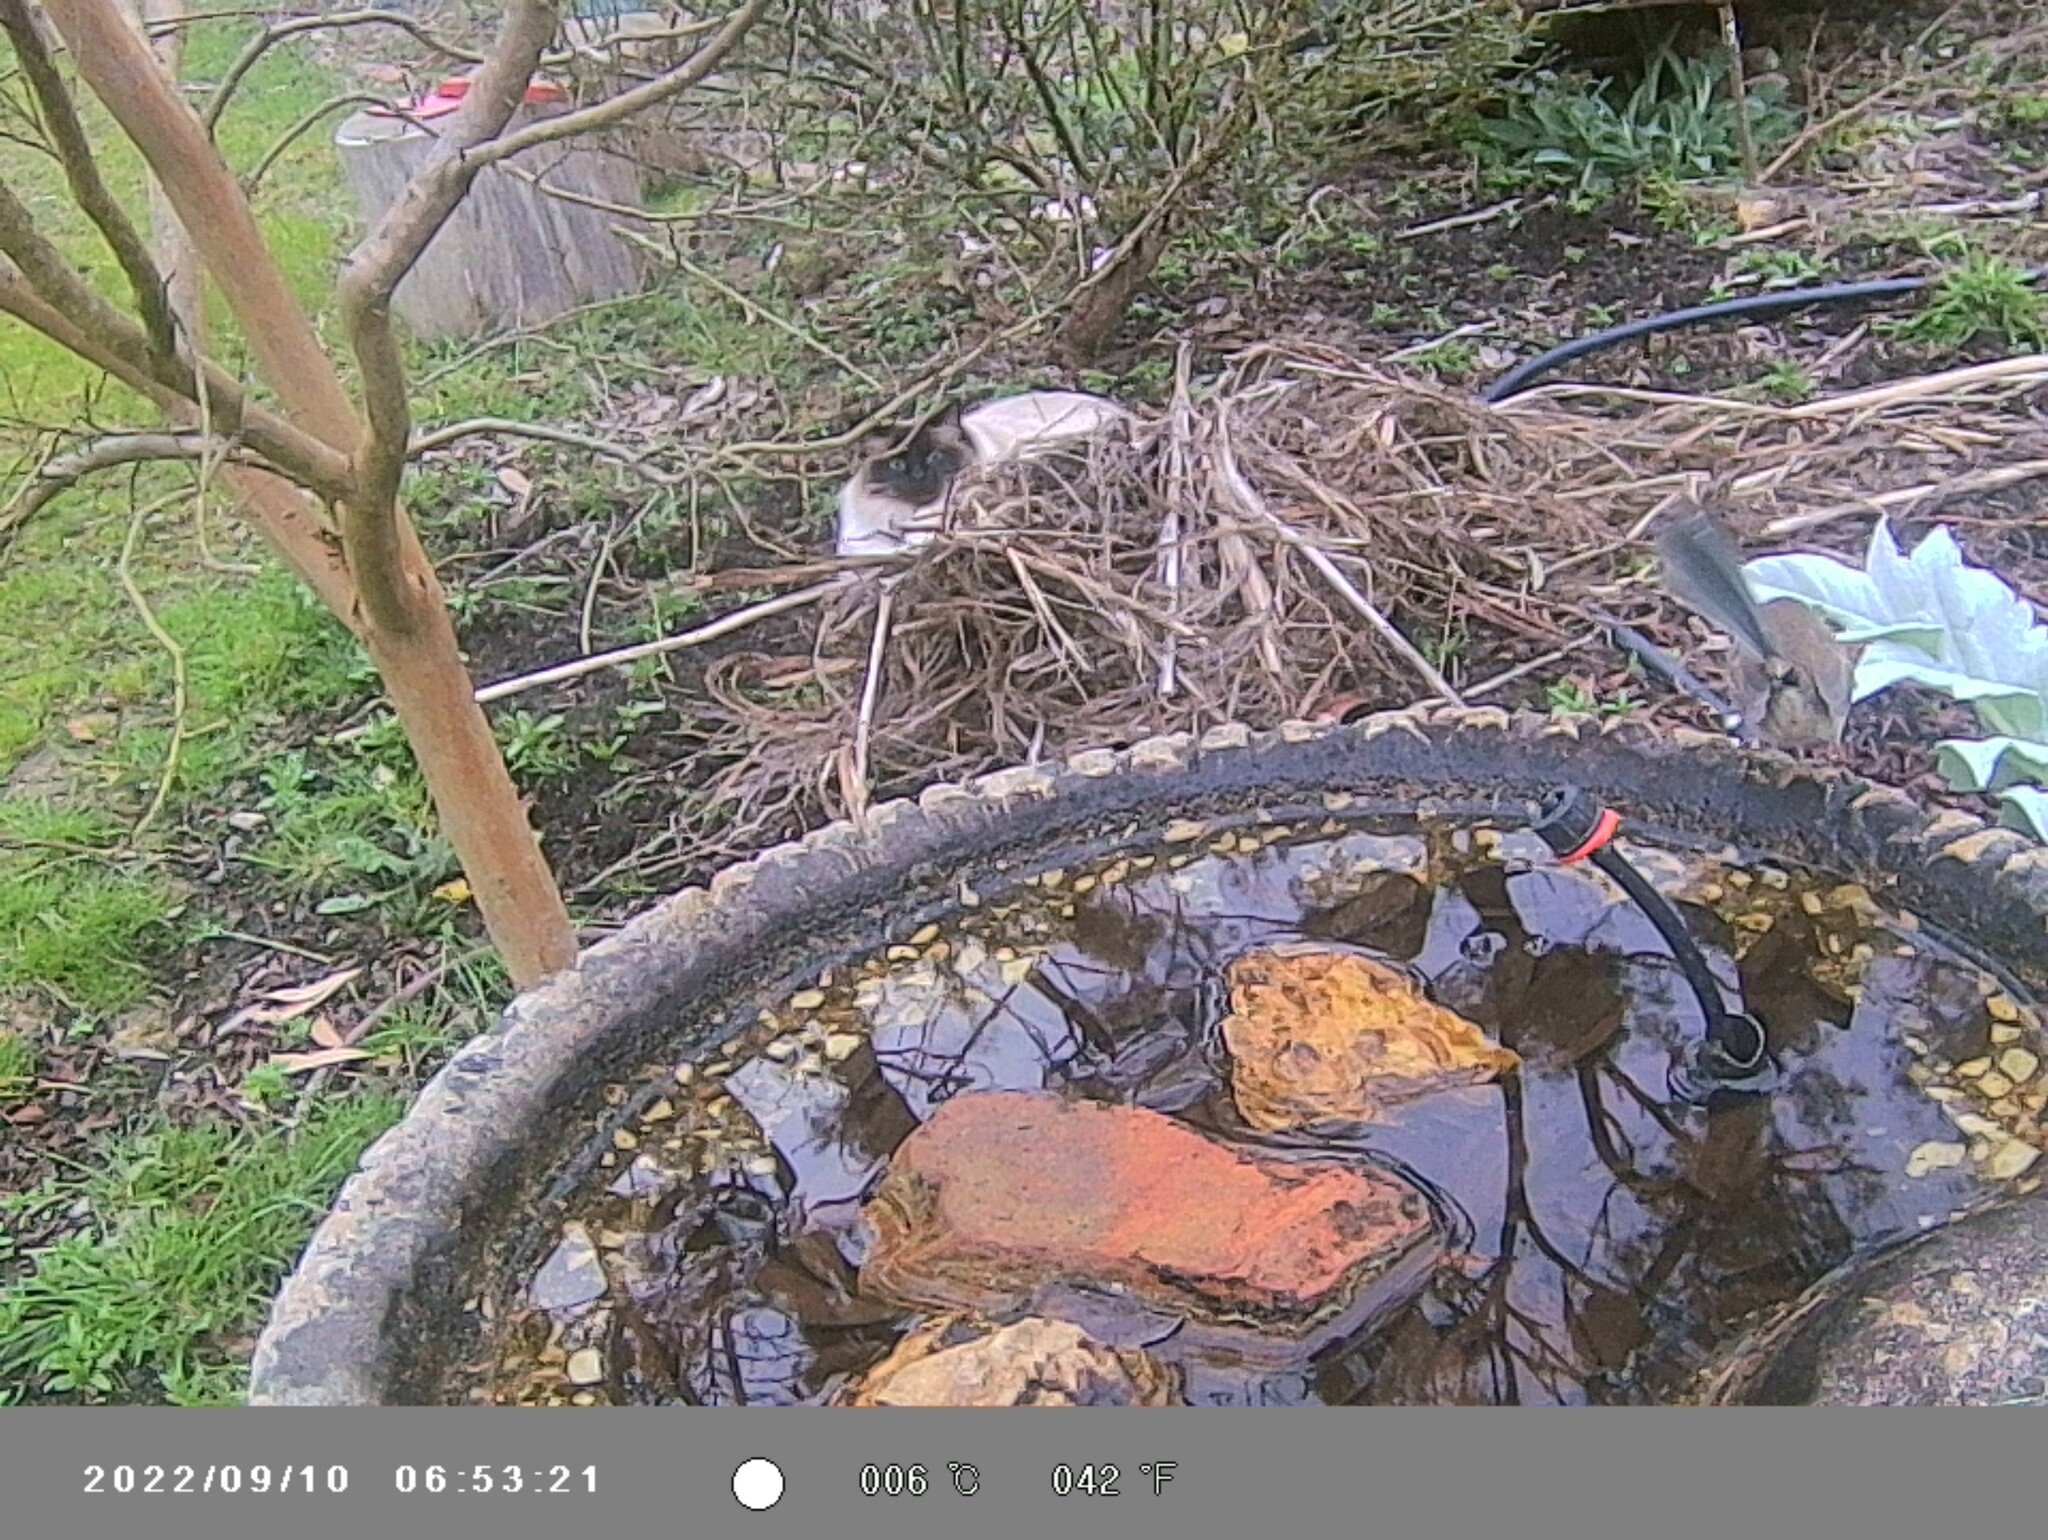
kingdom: Animalia
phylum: Chordata
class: Aves
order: Passeriformes
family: Maluridae
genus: Malurus
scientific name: Malurus cyaneus
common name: Superb fairywren
